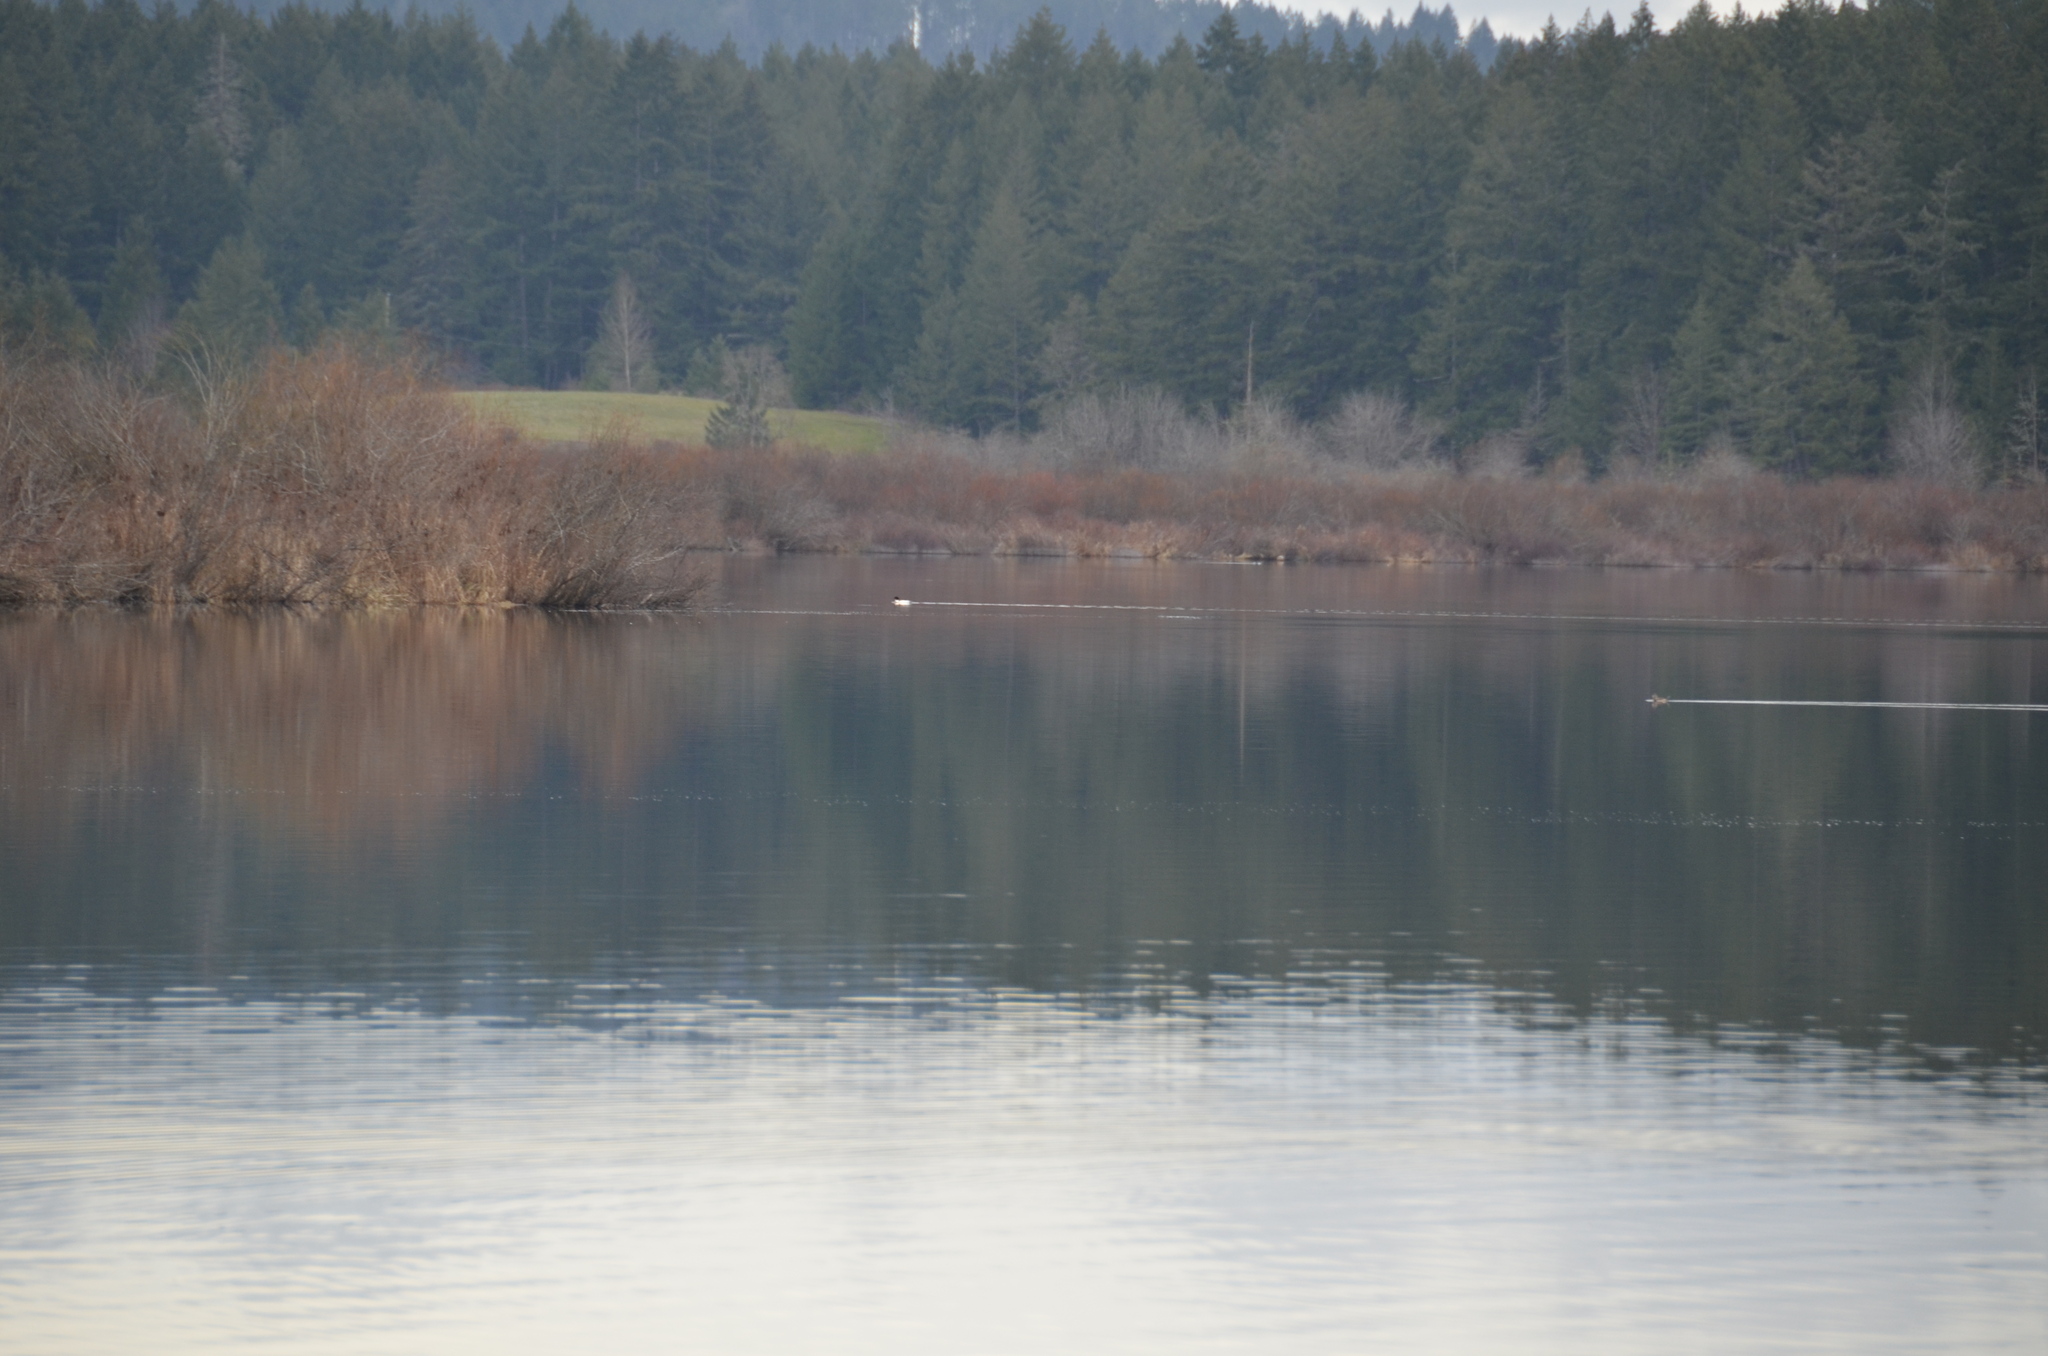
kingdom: Animalia
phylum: Chordata
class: Aves
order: Anseriformes
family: Anatidae
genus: Mergus
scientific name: Mergus merganser
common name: Common merganser
